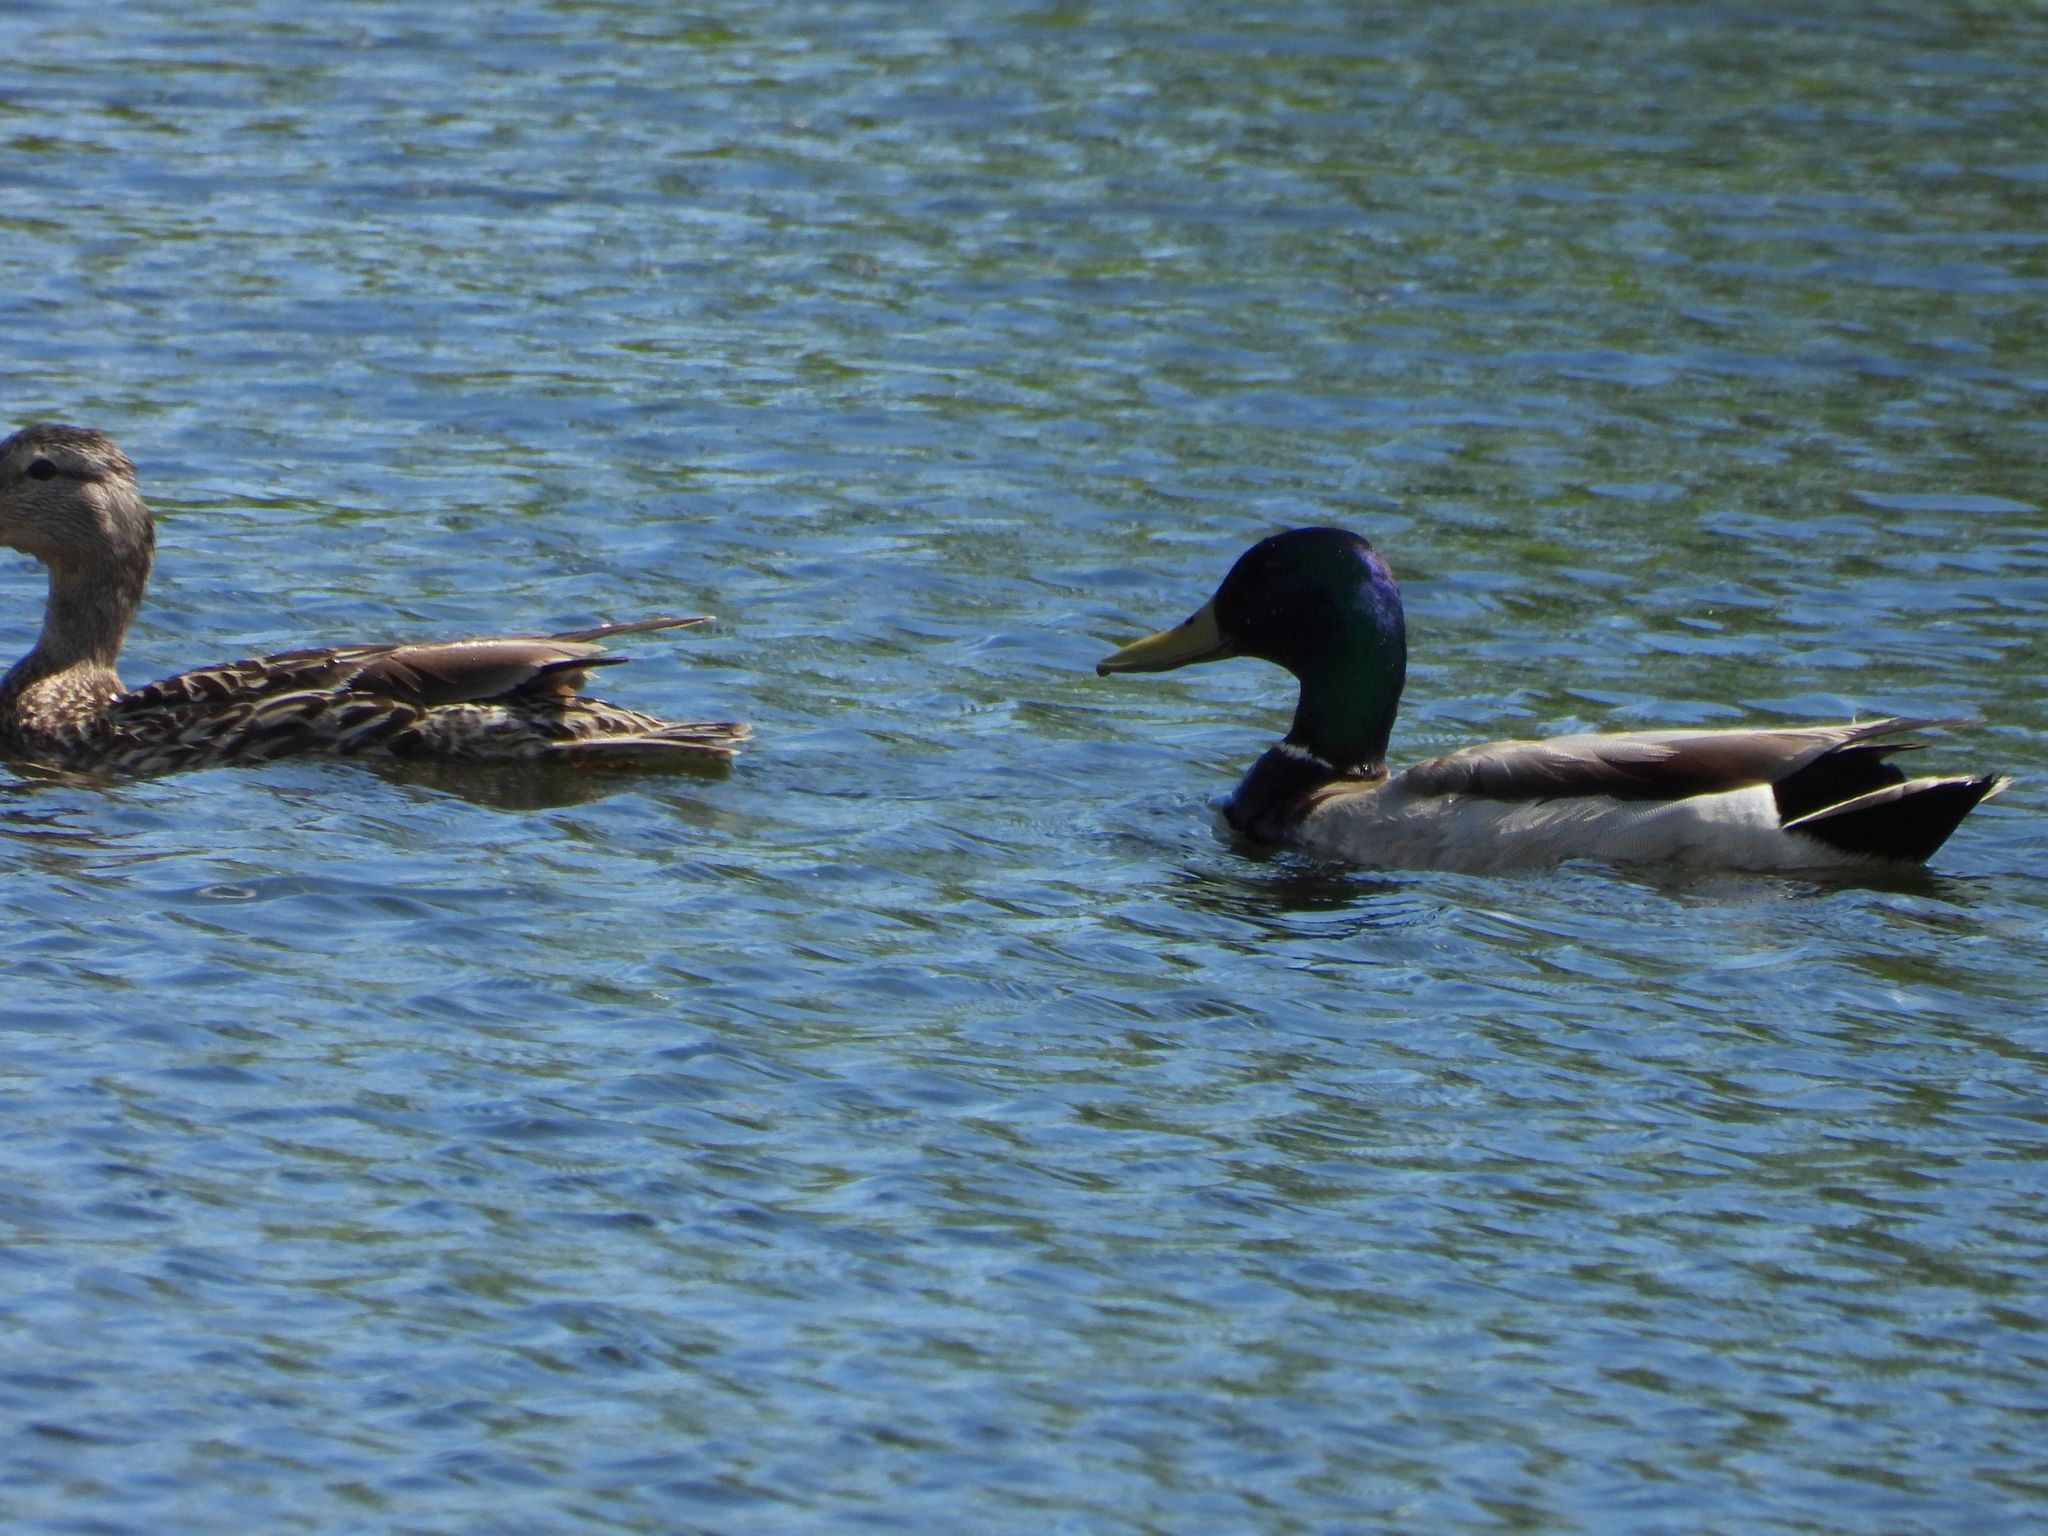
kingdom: Animalia
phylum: Chordata
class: Aves
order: Anseriformes
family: Anatidae
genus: Anas
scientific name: Anas platyrhynchos
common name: Mallard
